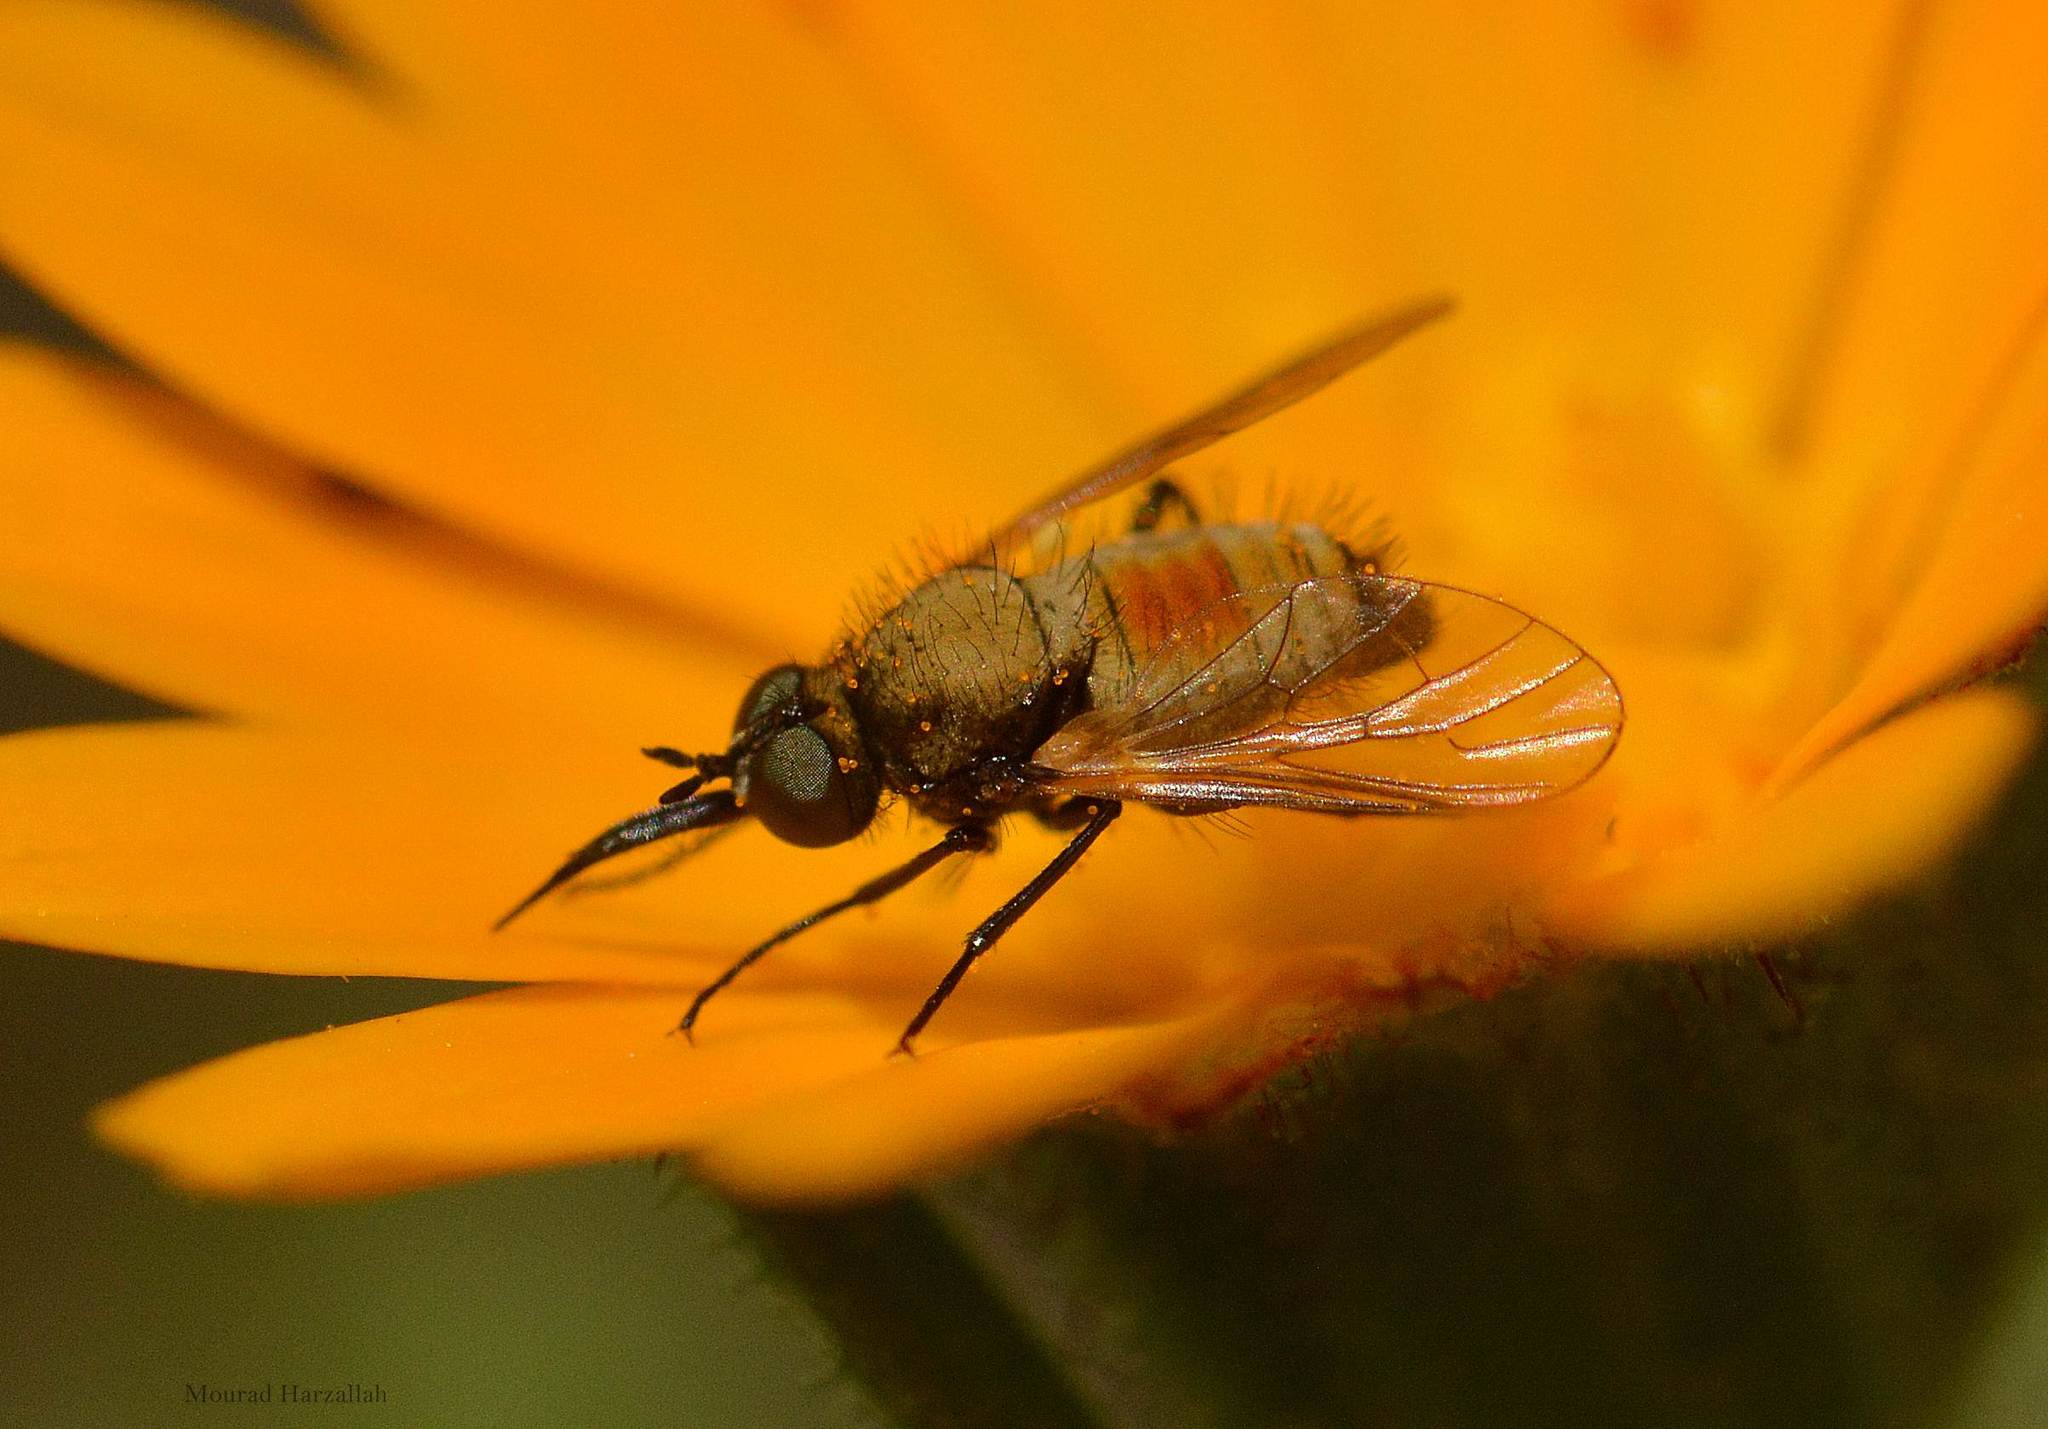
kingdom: Animalia
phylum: Arthropoda
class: Insecta
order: Diptera
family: Bombyliidae
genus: Usia
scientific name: Usia versicolor
